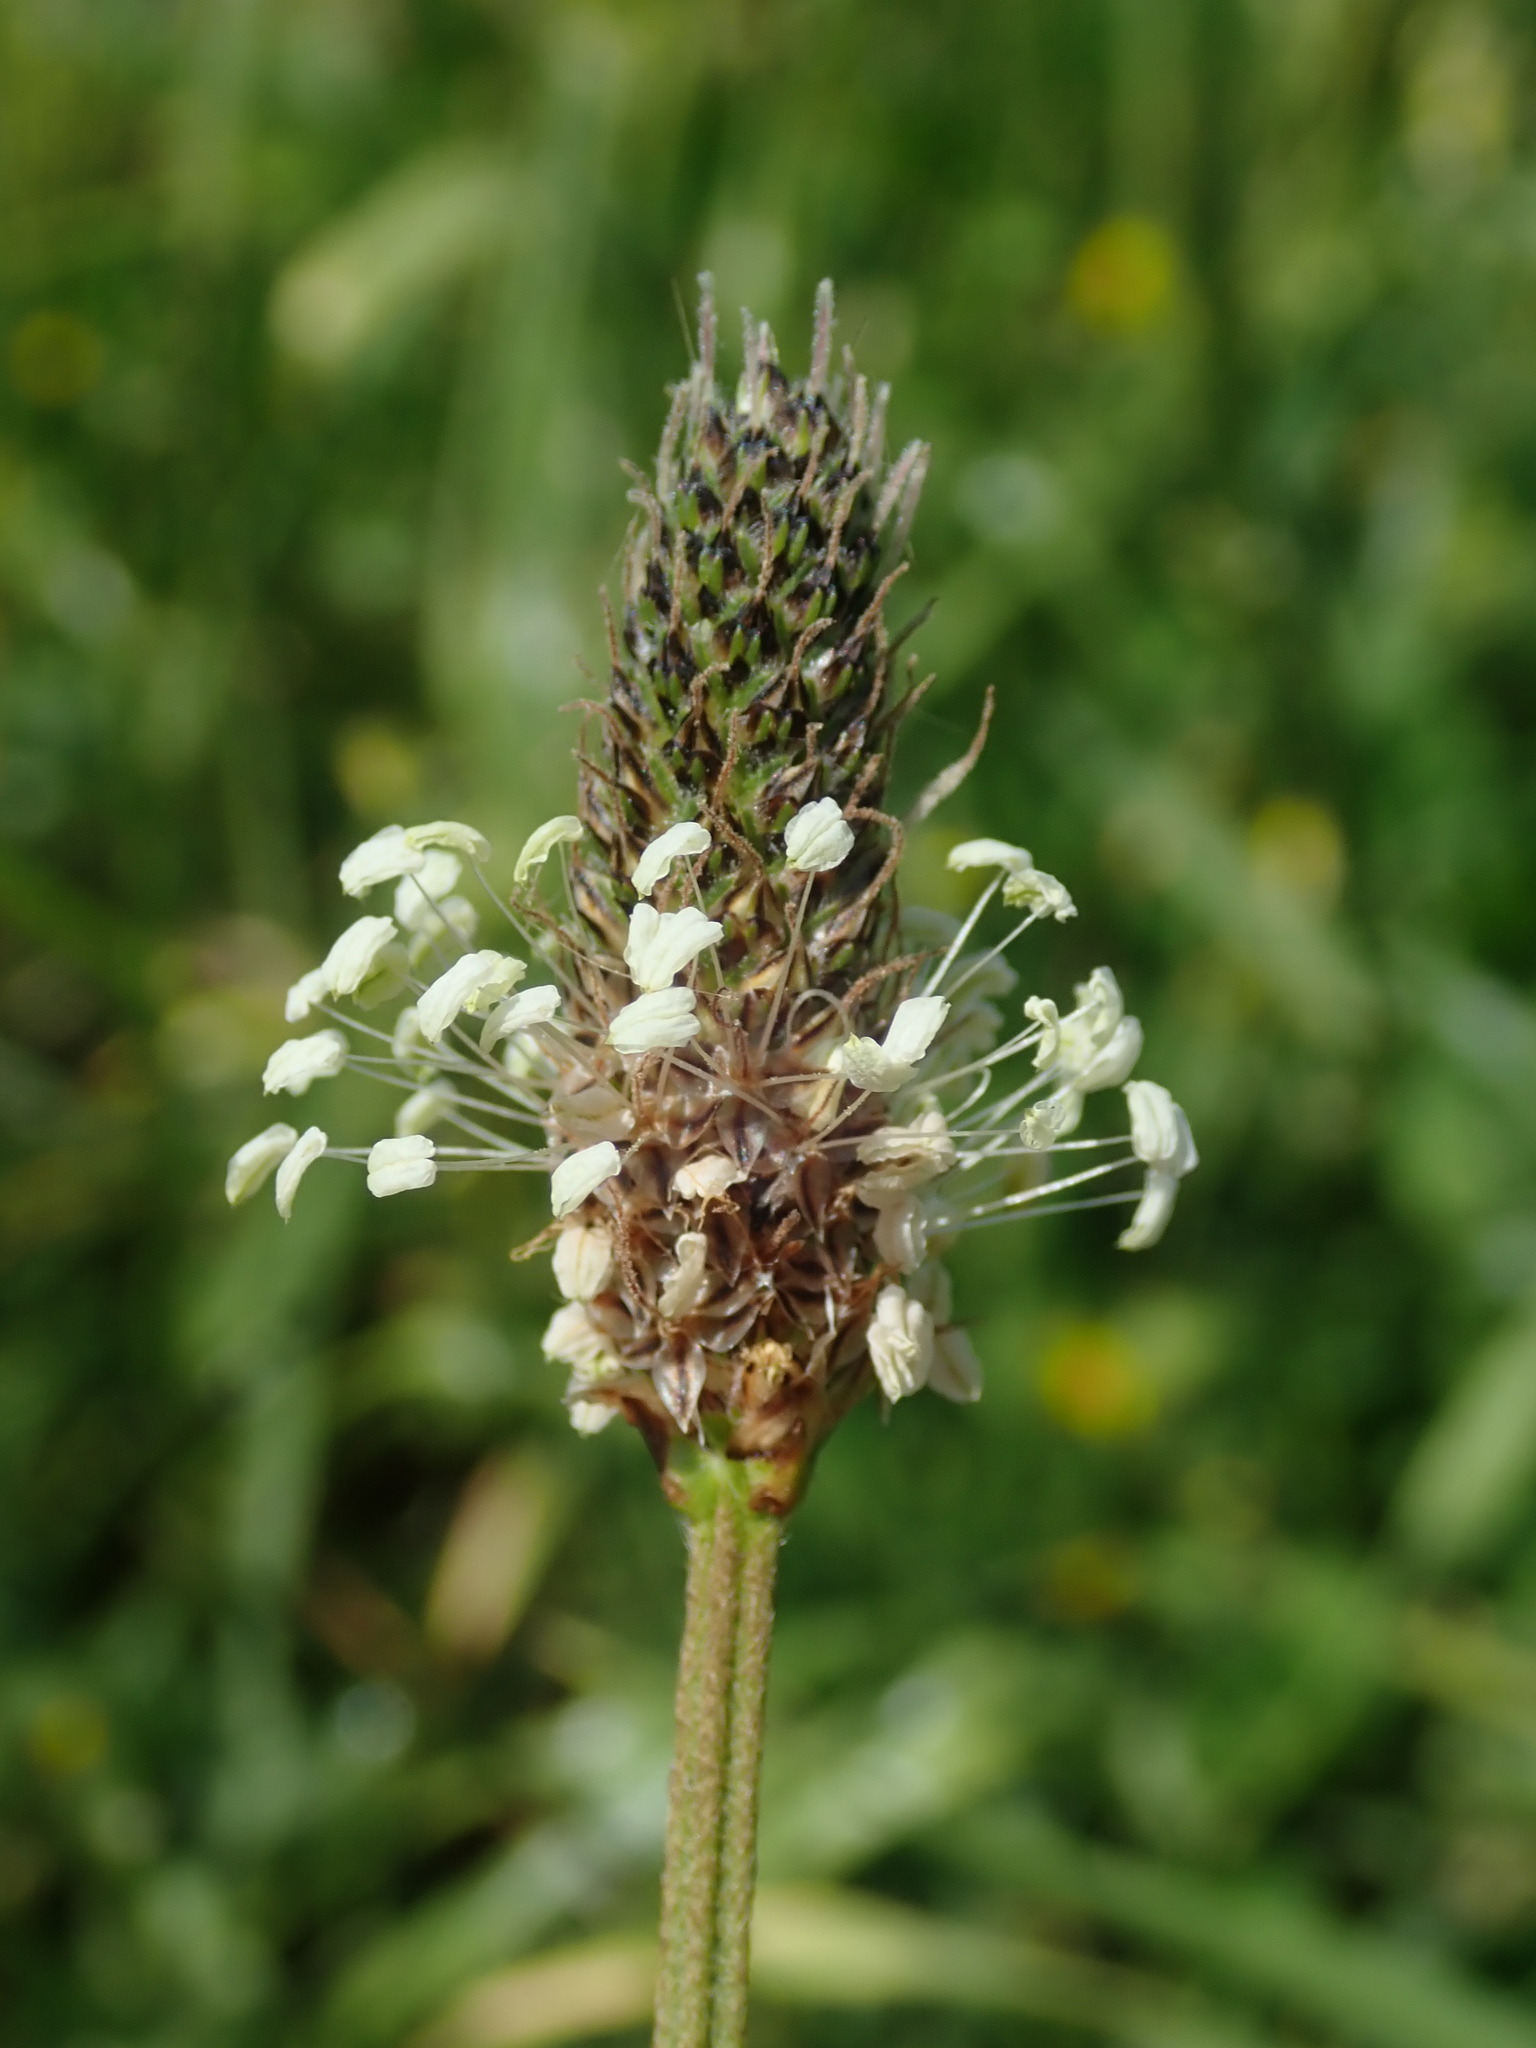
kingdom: Plantae
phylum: Tracheophyta
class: Magnoliopsida
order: Lamiales
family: Plantaginaceae
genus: Plantago
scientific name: Plantago lanceolata
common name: Ribwort plantain
